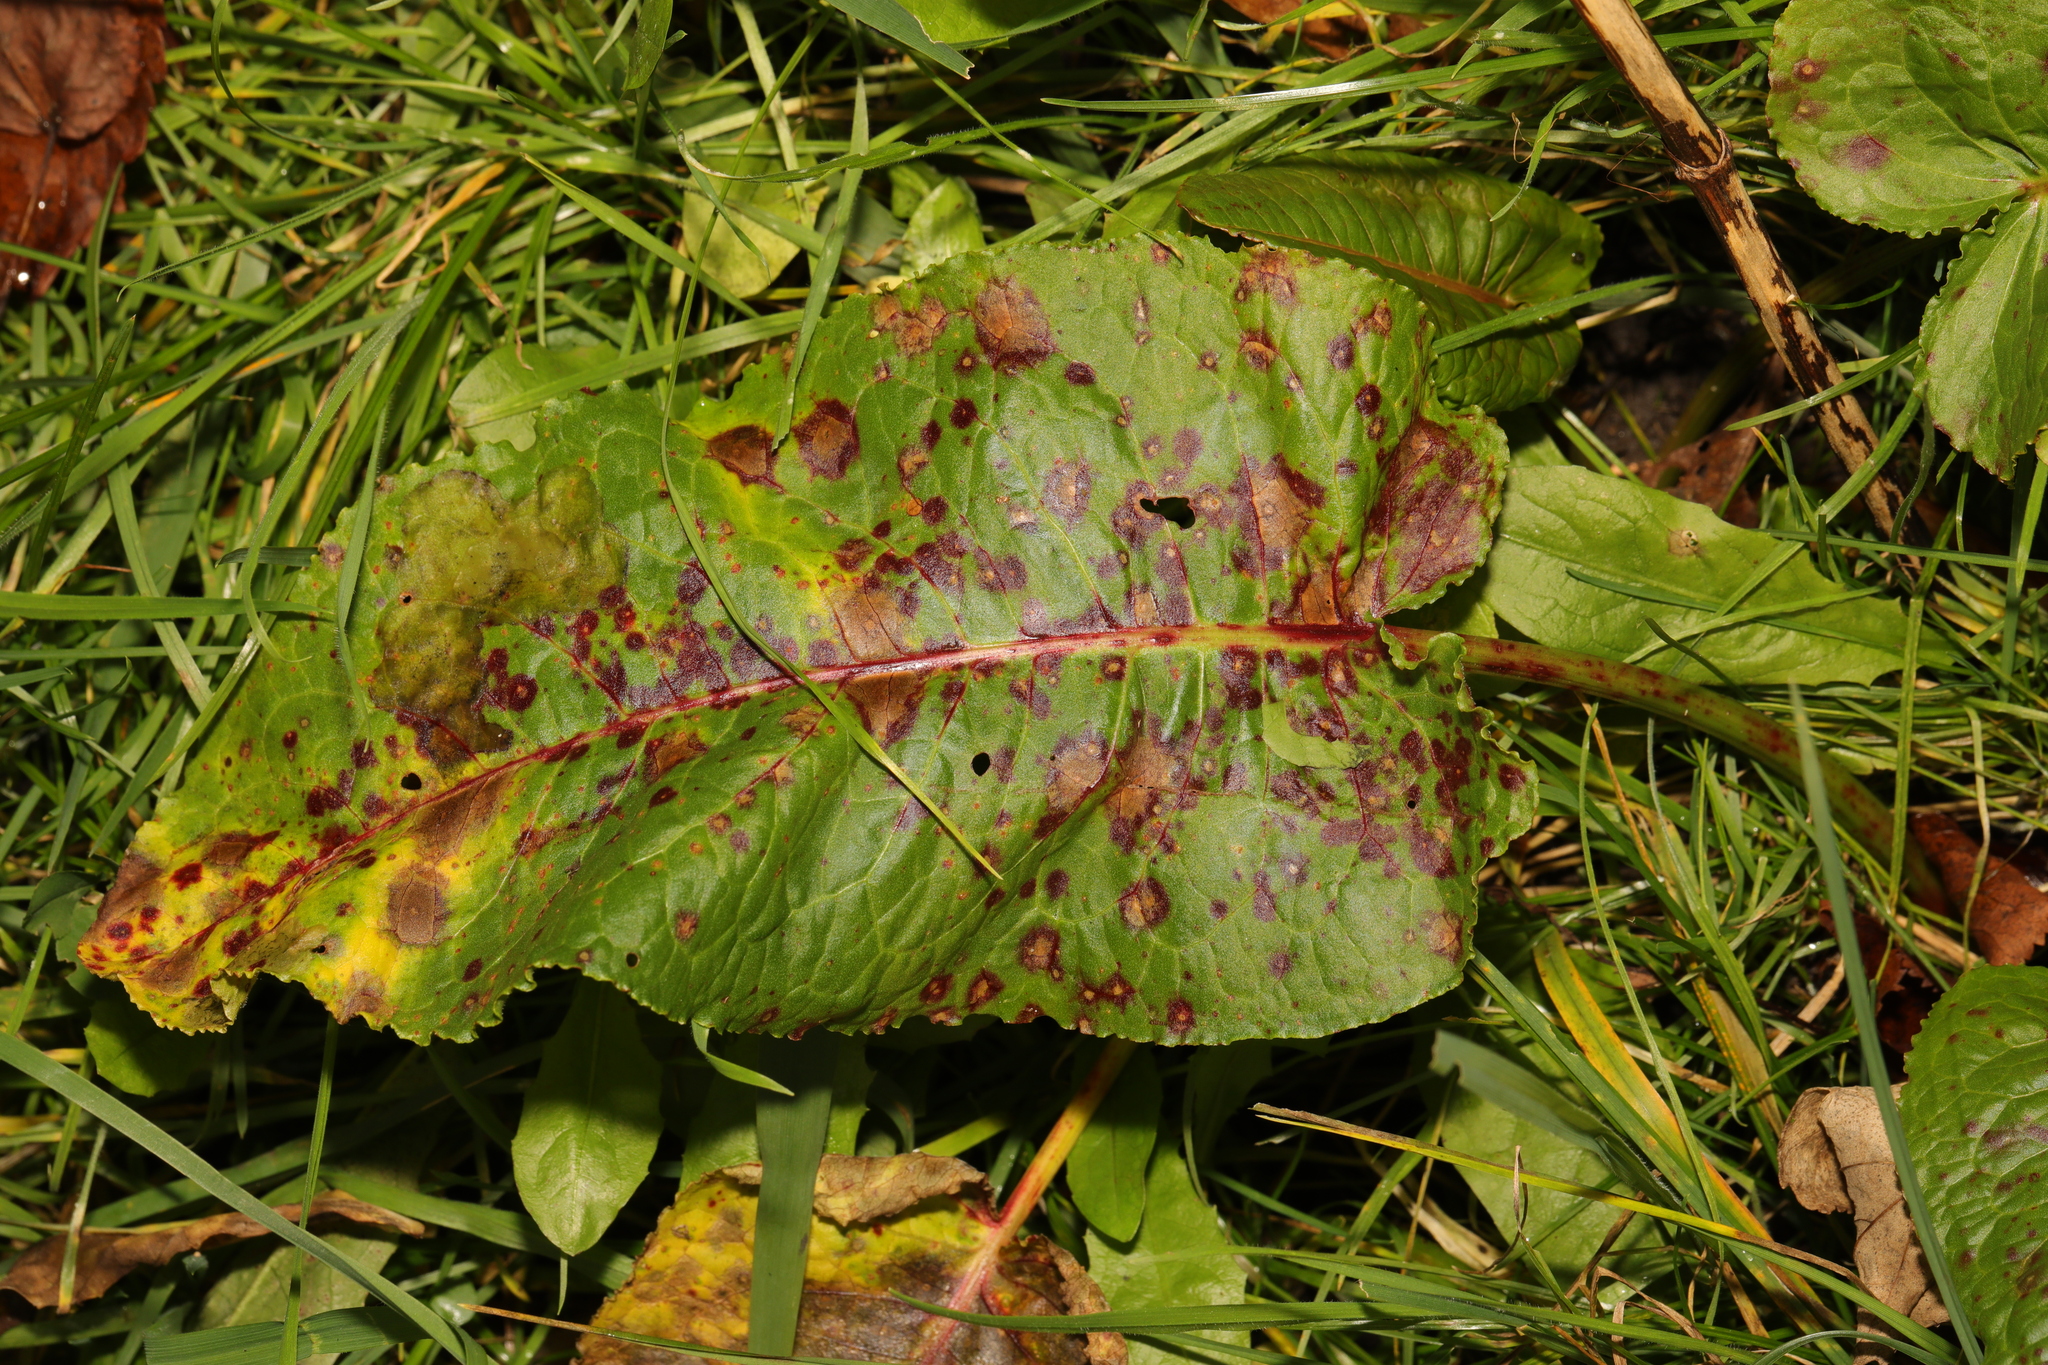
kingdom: Plantae
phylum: Tracheophyta
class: Magnoliopsida
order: Caryophyllales
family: Polygonaceae
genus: Rumex
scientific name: Rumex obtusifolius
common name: Bitter dock
